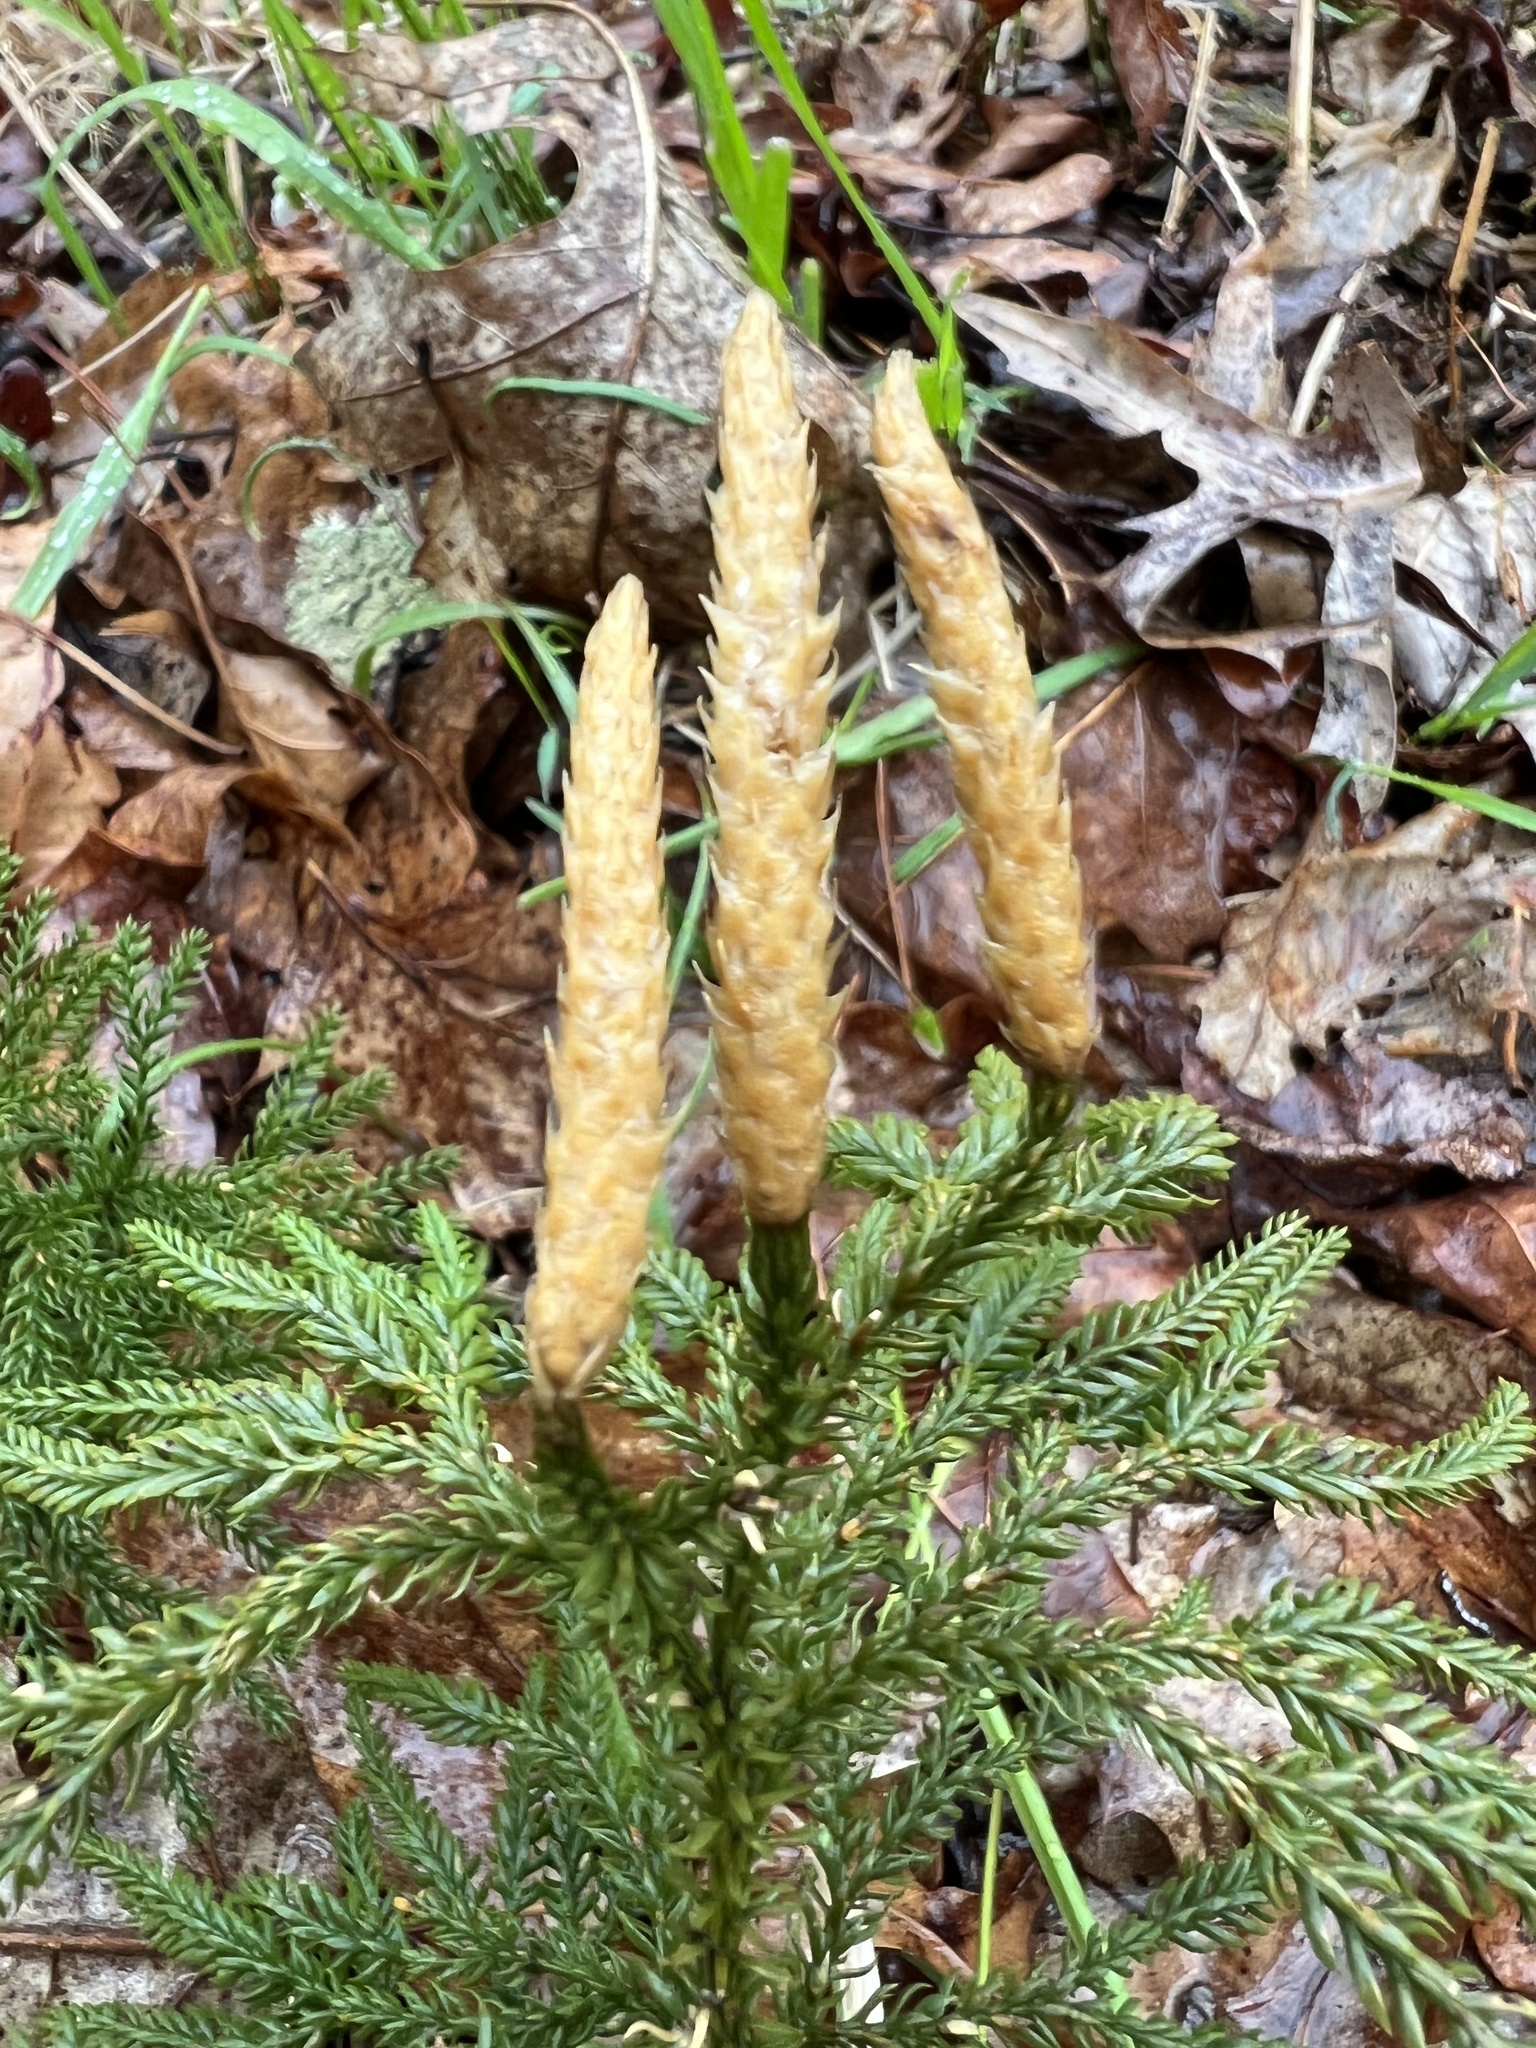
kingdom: Plantae
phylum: Tracheophyta
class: Lycopodiopsida
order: Lycopodiales
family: Lycopodiaceae
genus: Dendrolycopodium
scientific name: Dendrolycopodium obscurum
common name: Common ground-pine
